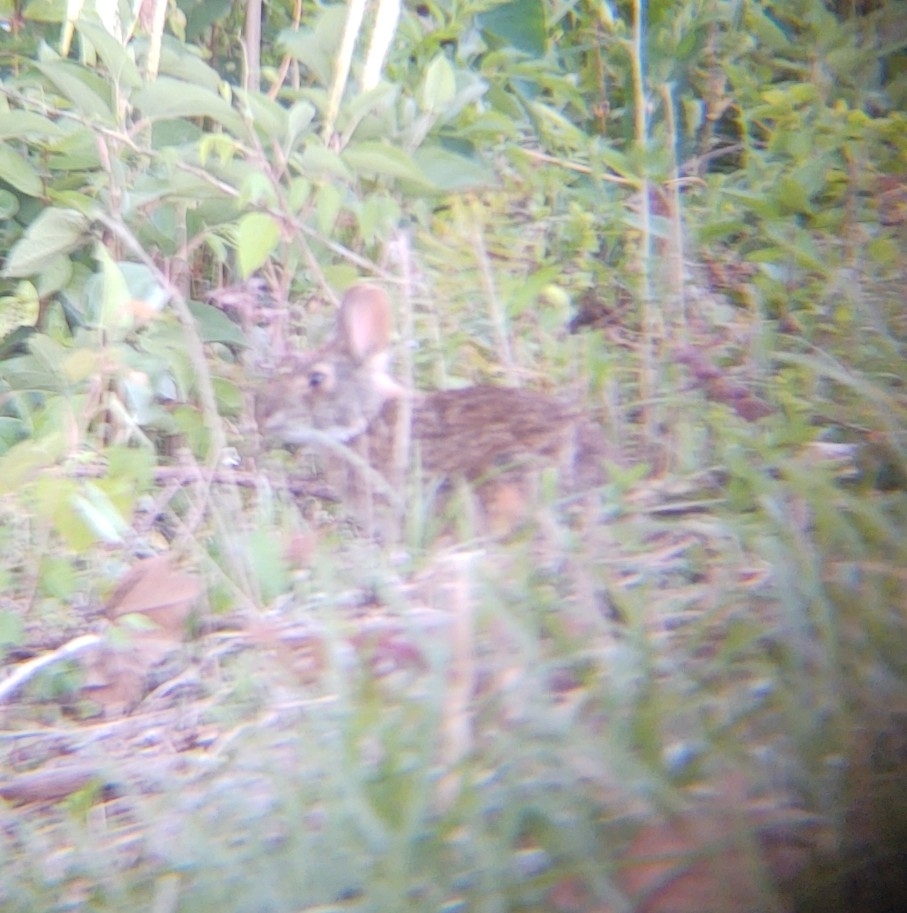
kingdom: Animalia
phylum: Chordata
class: Mammalia
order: Lagomorpha
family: Leporidae
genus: Sylvilagus
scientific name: Sylvilagus palustris
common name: Marsh rabbit
